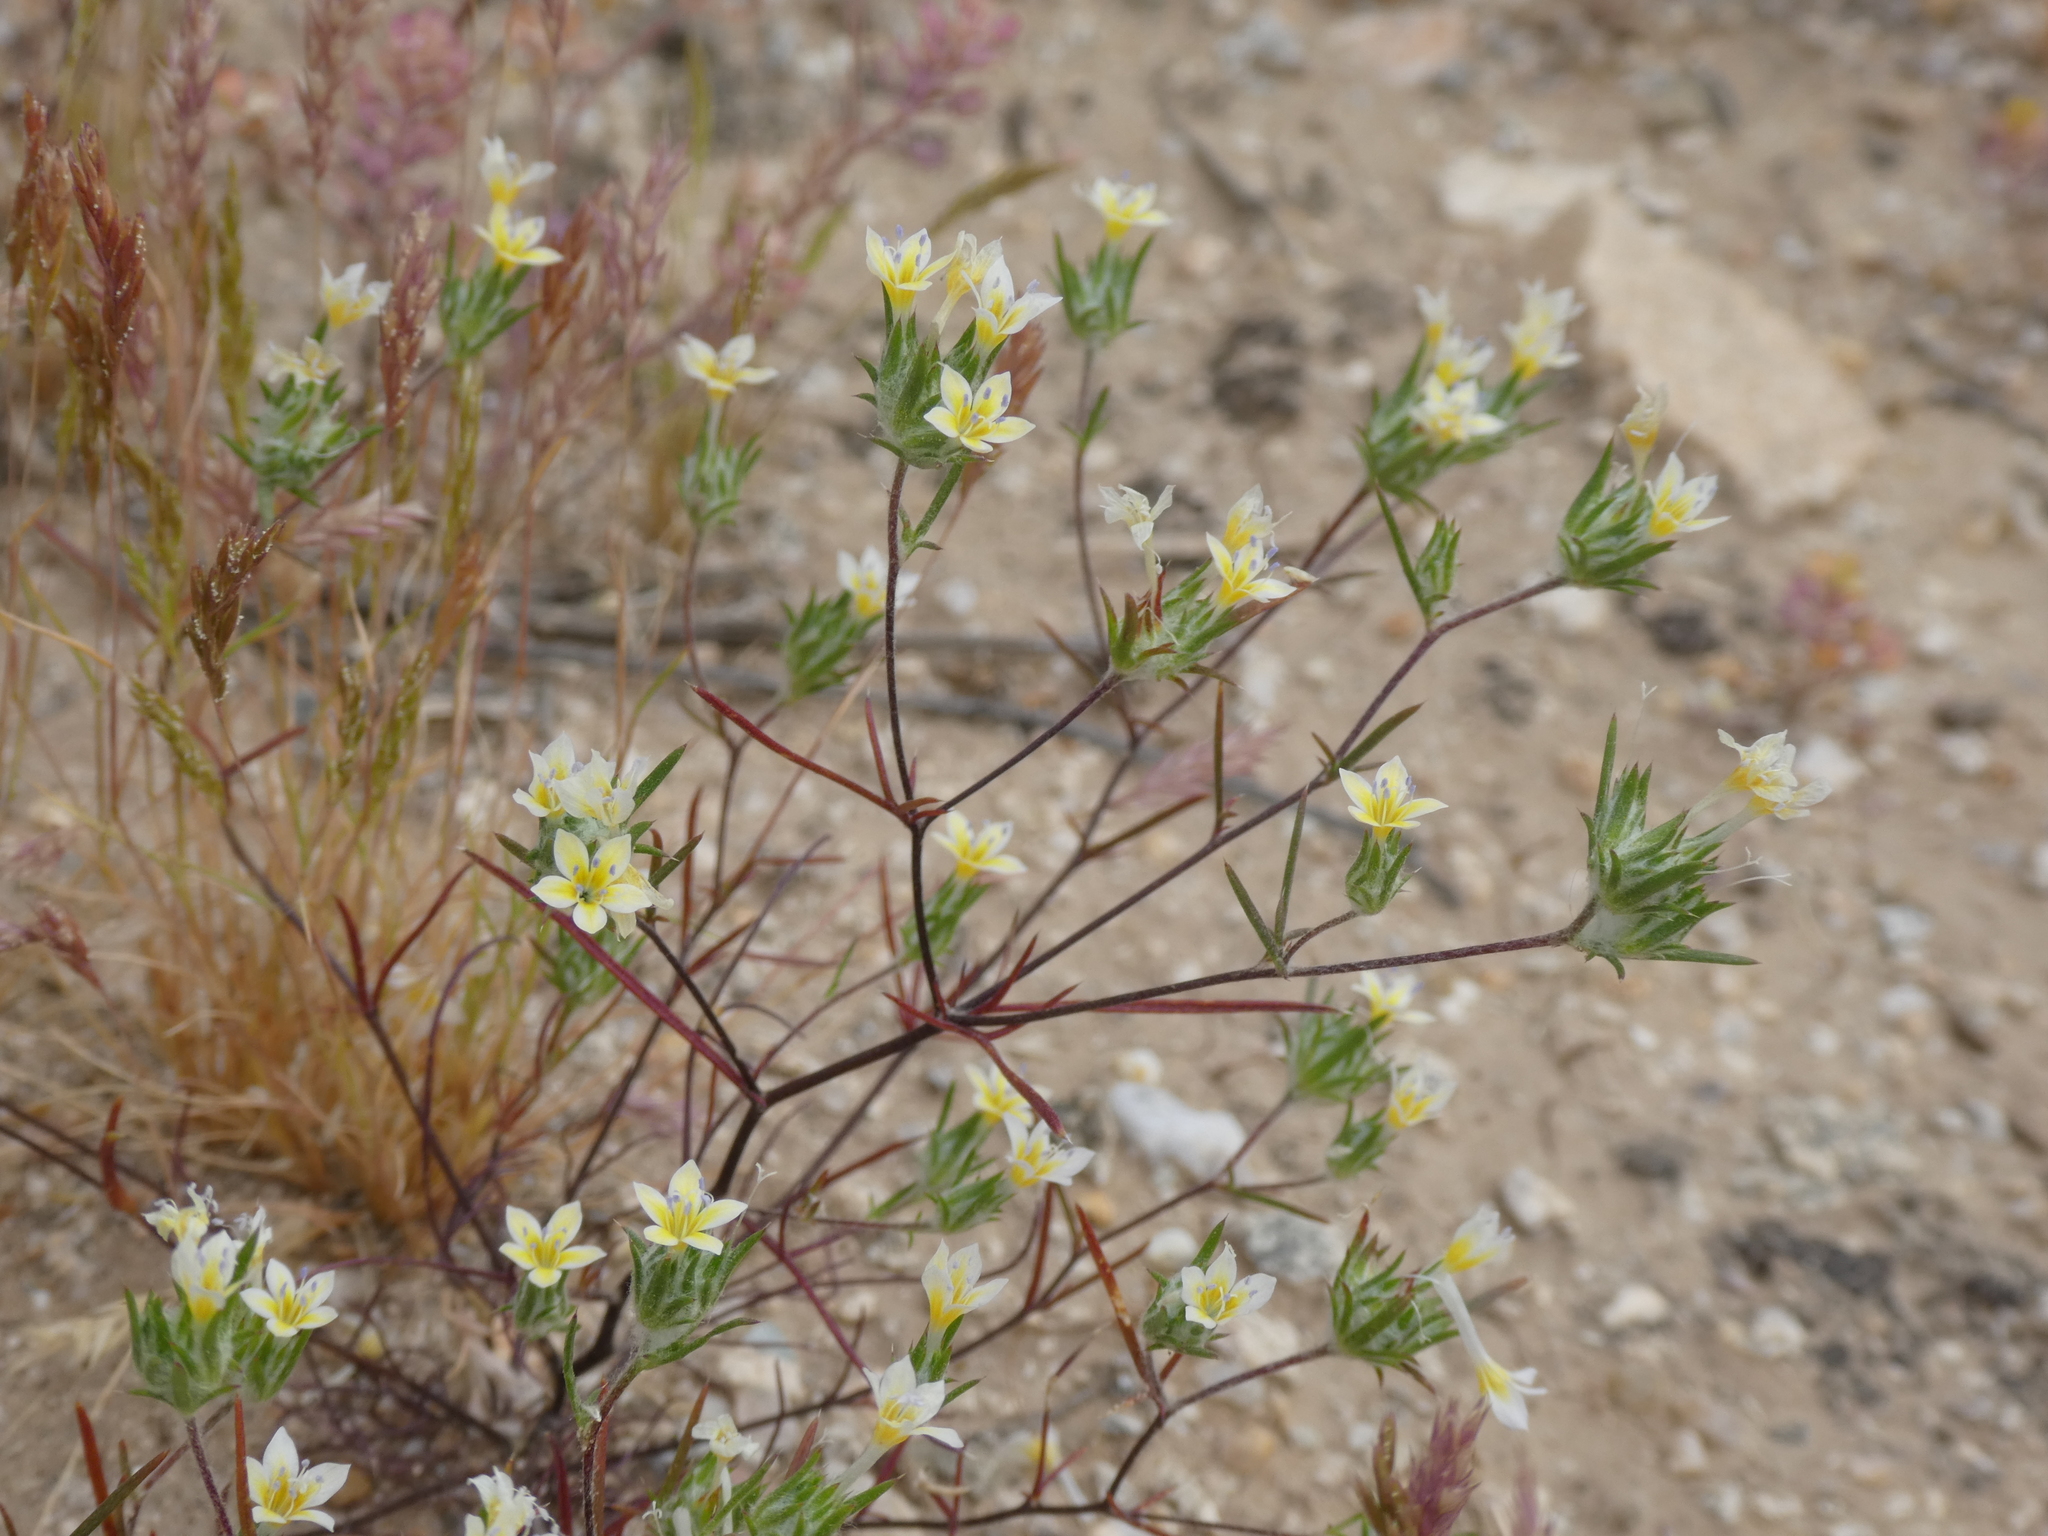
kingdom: Plantae
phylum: Tracheophyta
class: Magnoliopsida
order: Ericales
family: Polemoniaceae
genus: Eriastrum
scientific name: Eriastrum diffusum
